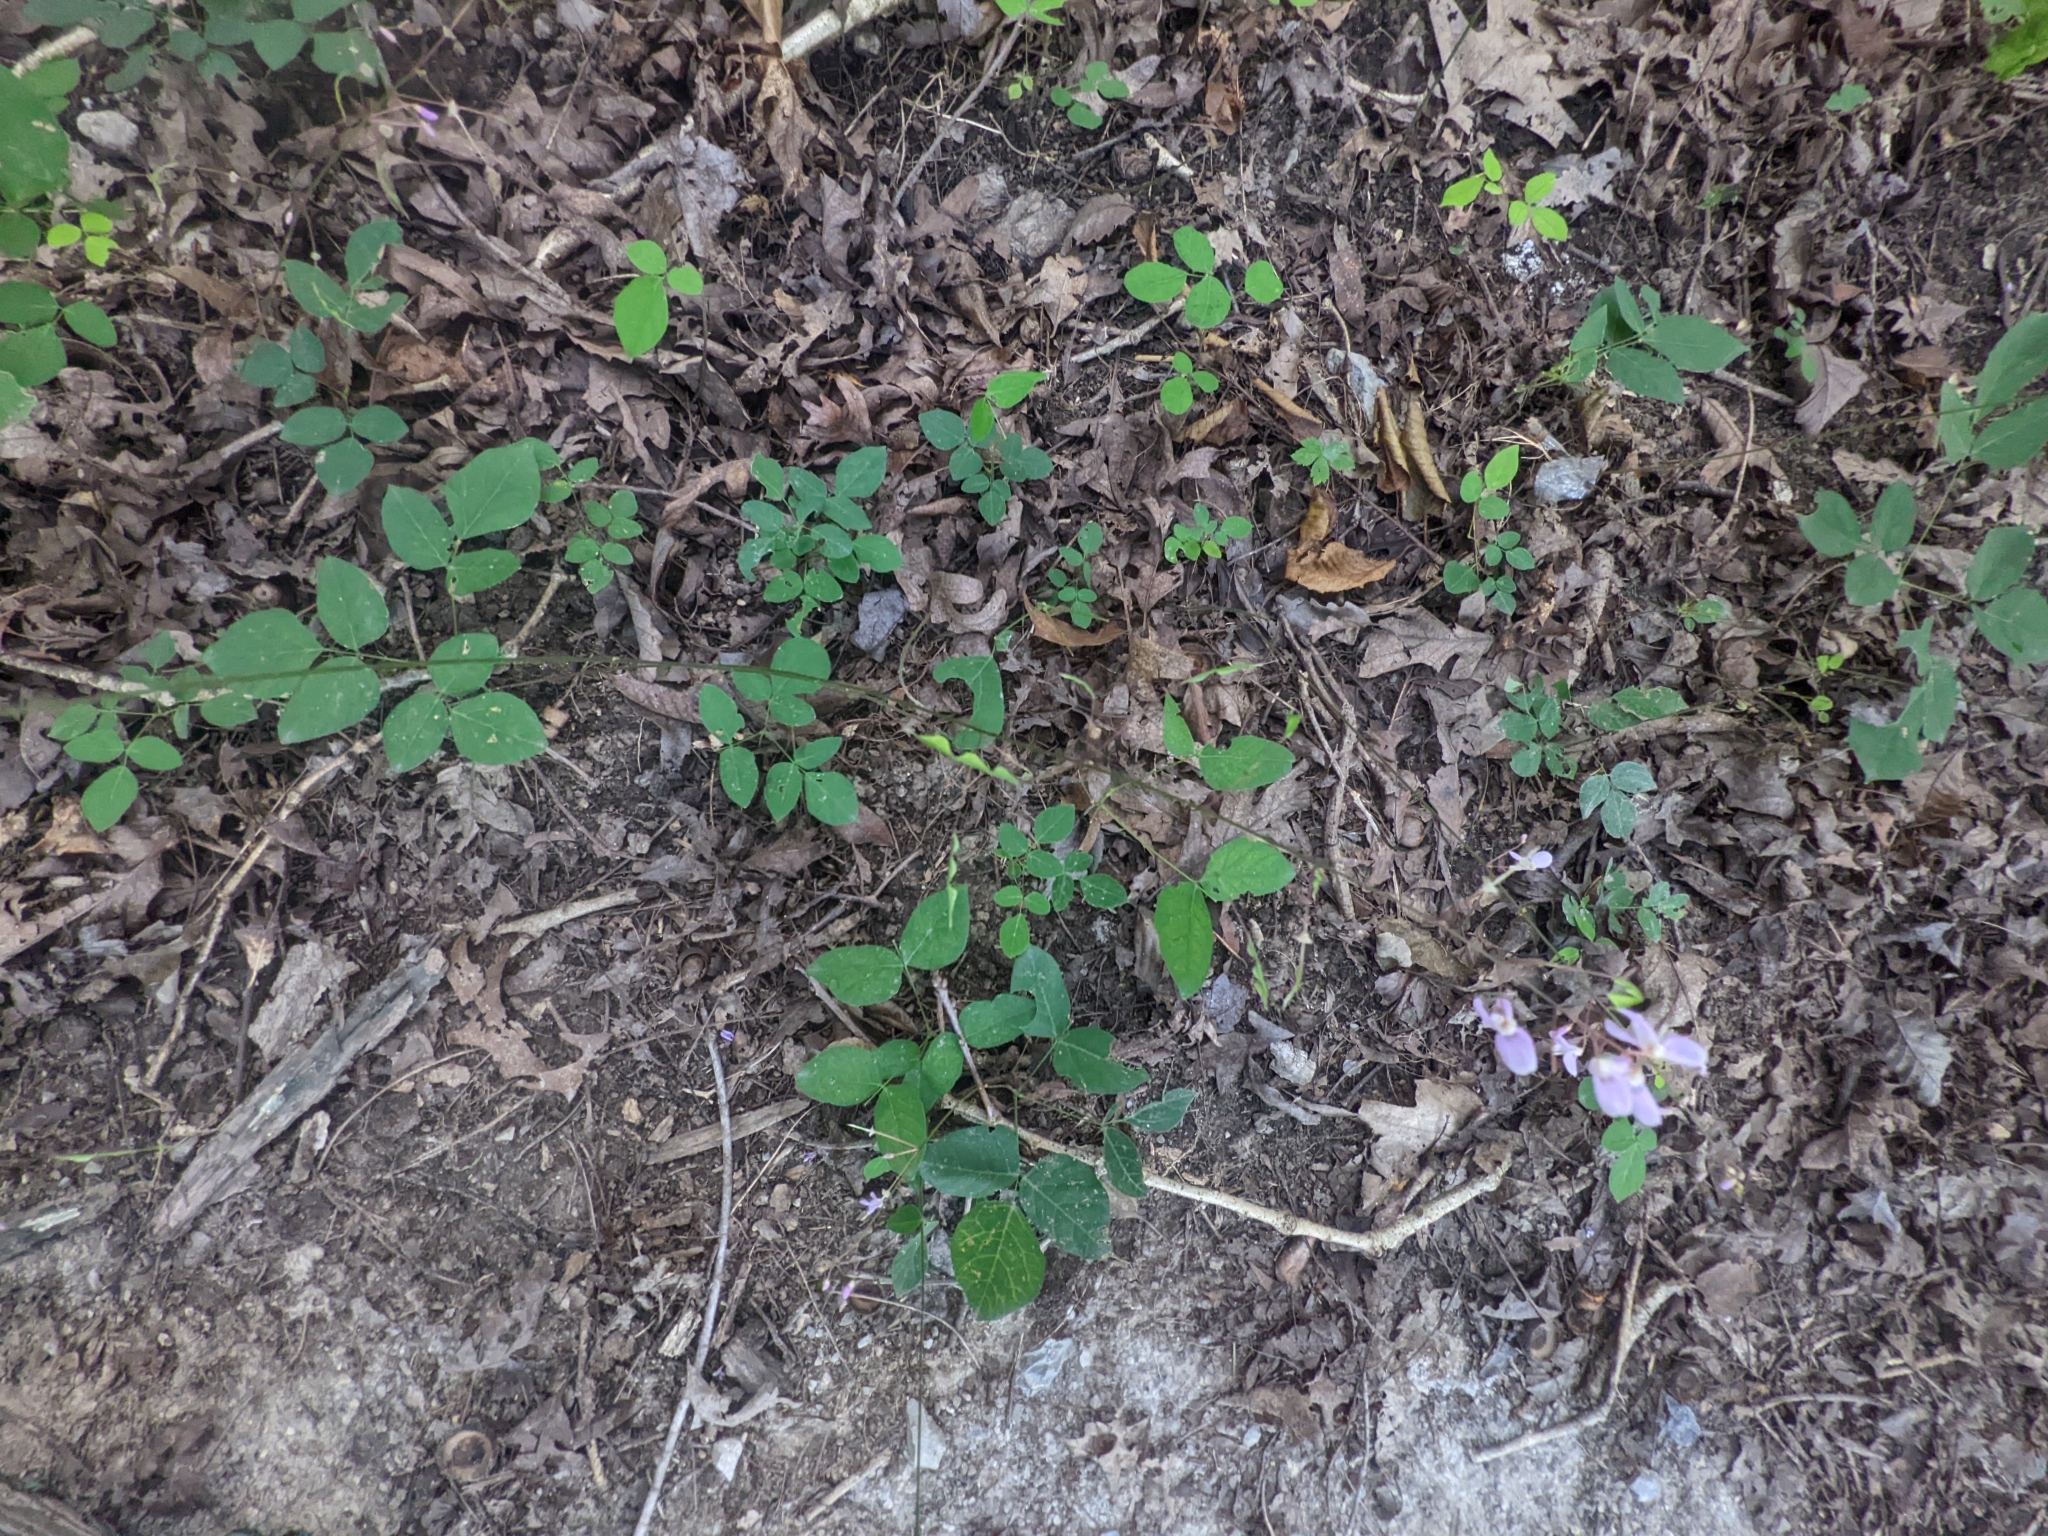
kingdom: Plantae
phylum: Tracheophyta
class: Magnoliopsida
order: Fabales
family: Fabaceae
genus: Hylodesmum
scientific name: Hylodesmum nudiflorum
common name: Bare-stemmed tick-trefoil
